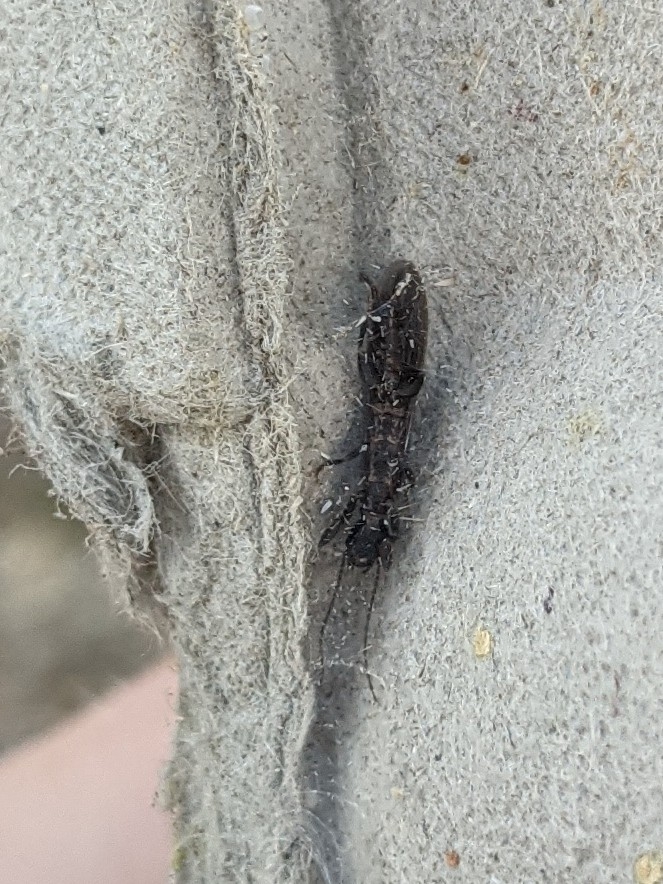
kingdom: Animalia
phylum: Arthropoda
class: Insecta
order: Embioptera
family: Oligotomidae
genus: Oligotoma
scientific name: Oligotoma nigra
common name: Black webspinner
